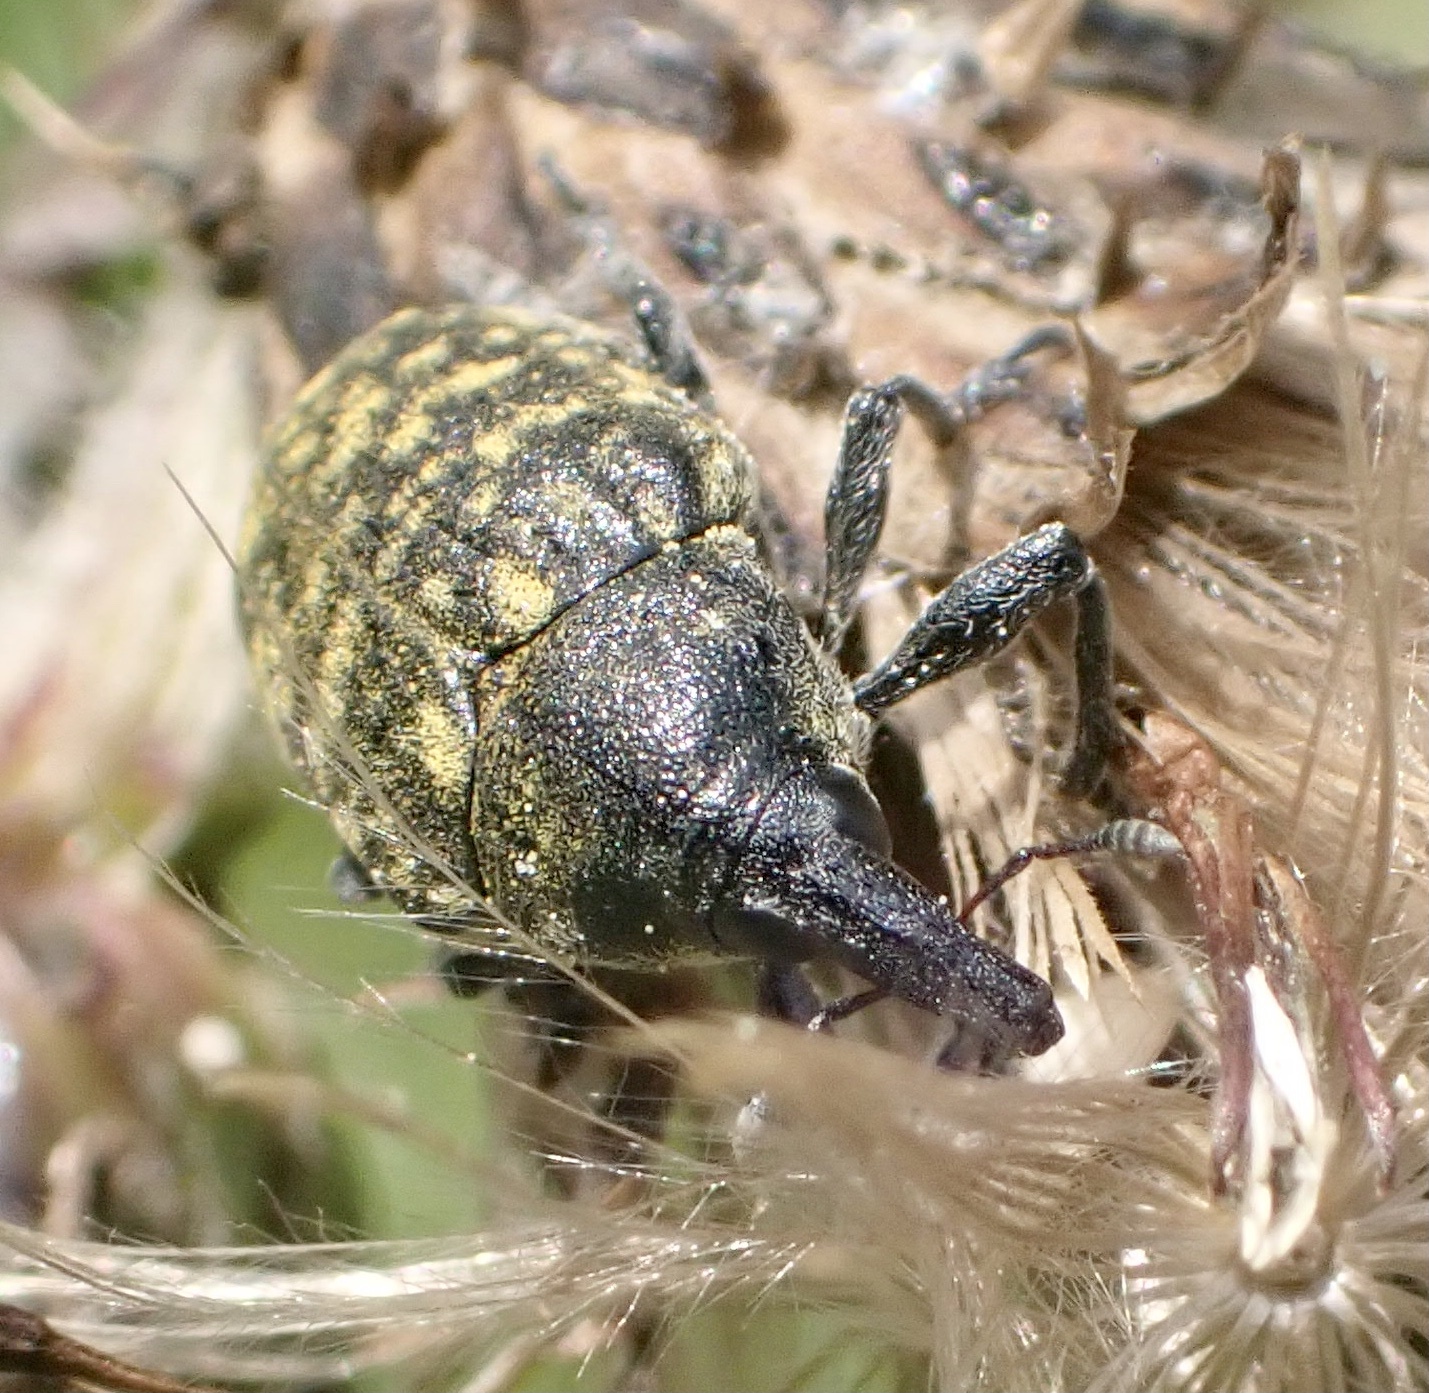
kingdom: Animalia
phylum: Arthropoda
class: Insecta
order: Coleoptera
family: Curculionidae
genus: Larinus
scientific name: Larinus turbinatus
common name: Weevil
